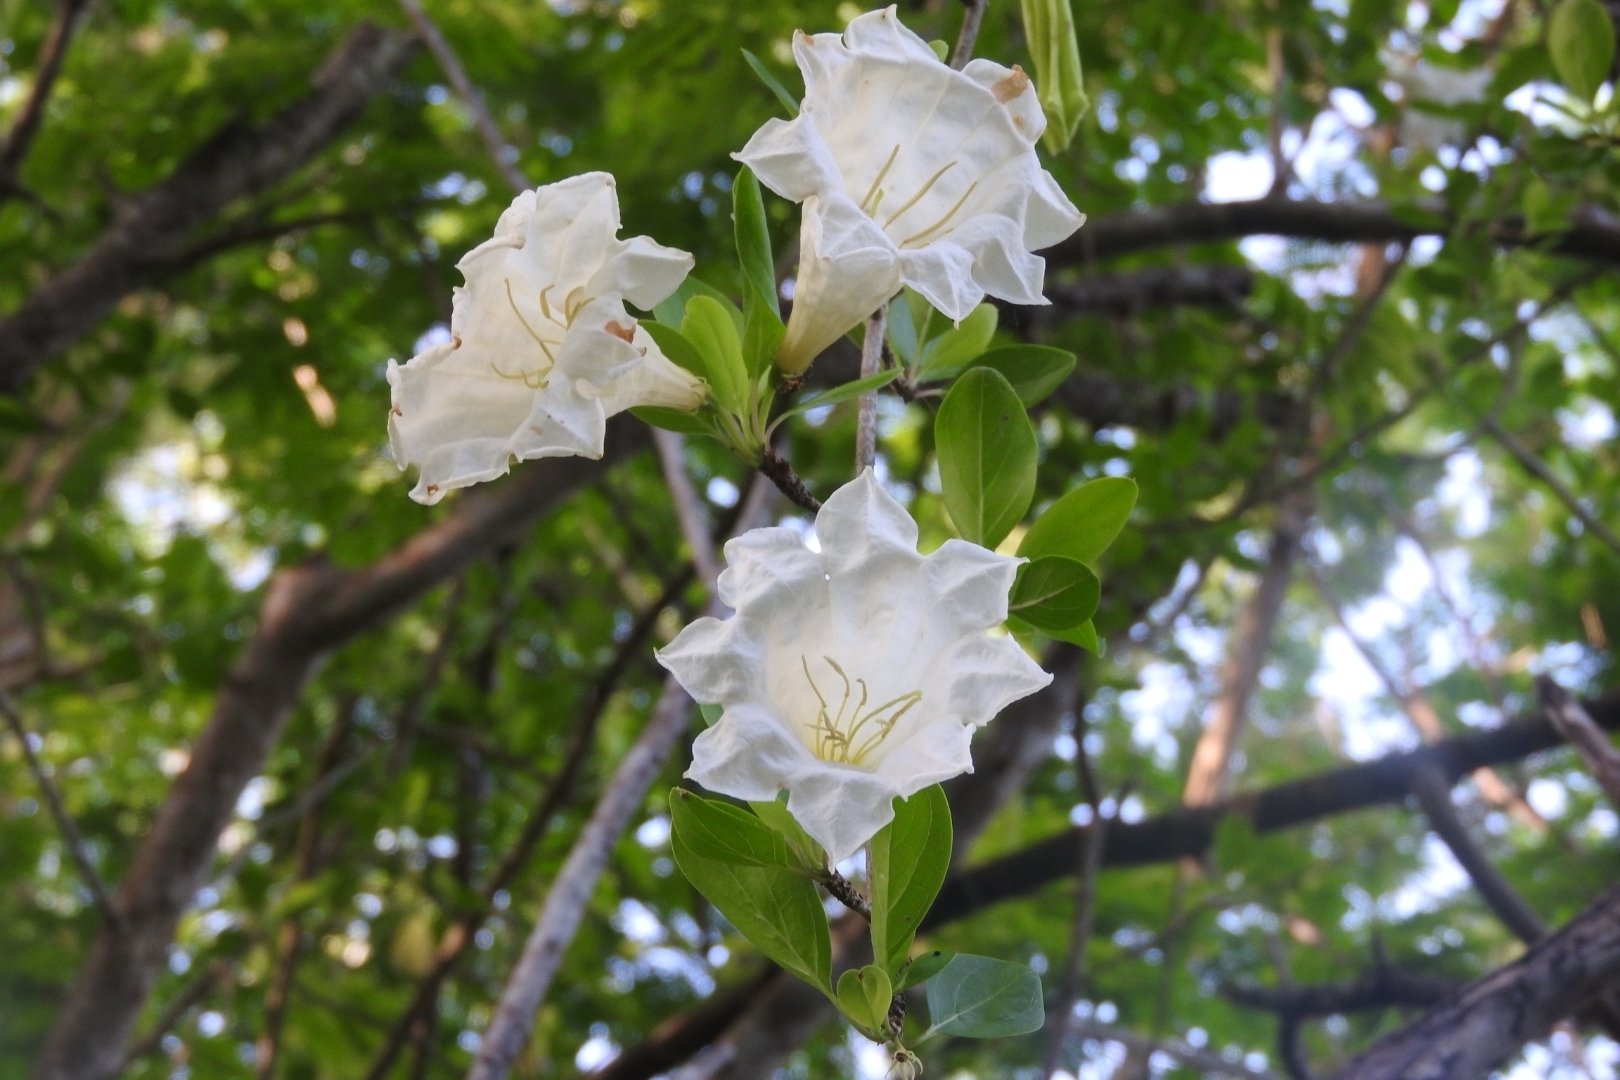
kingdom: Plantae
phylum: Tracheophyta
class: Magnoliopsida
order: Gentianales
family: Rubiaceae
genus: Hintonia
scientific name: Hintonia octomera
